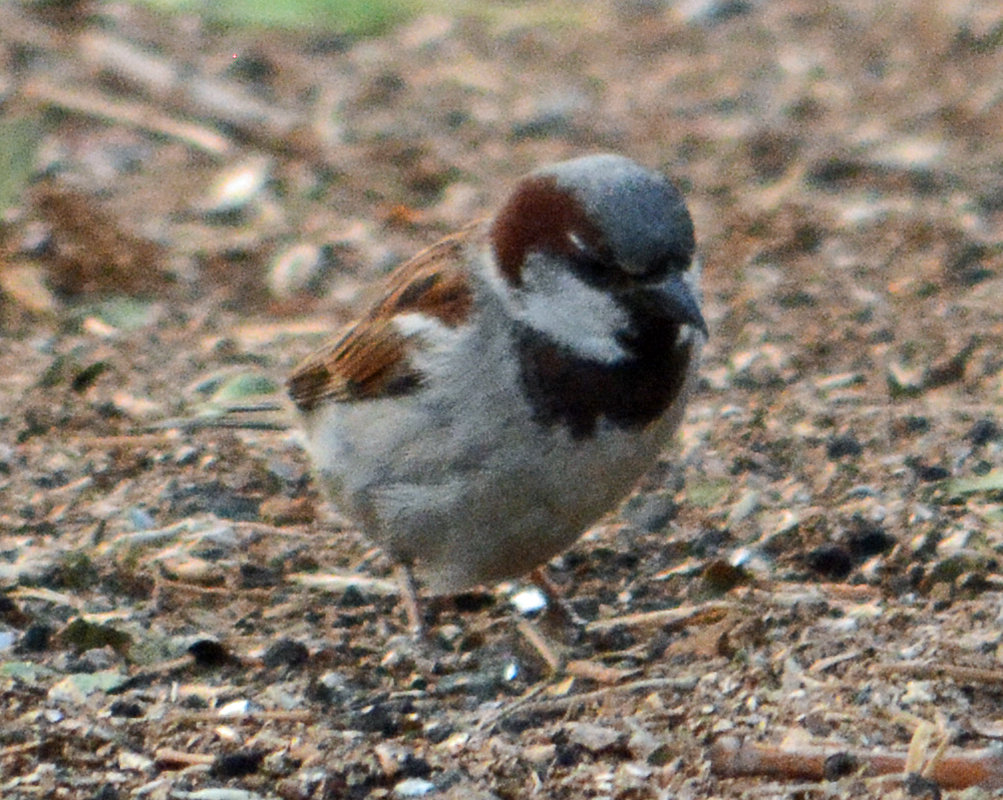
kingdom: Animalia
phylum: Chordata
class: Aves
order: Passeriformes
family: Passeridae
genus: Passer
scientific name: Passer domesticus
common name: House sparrow
